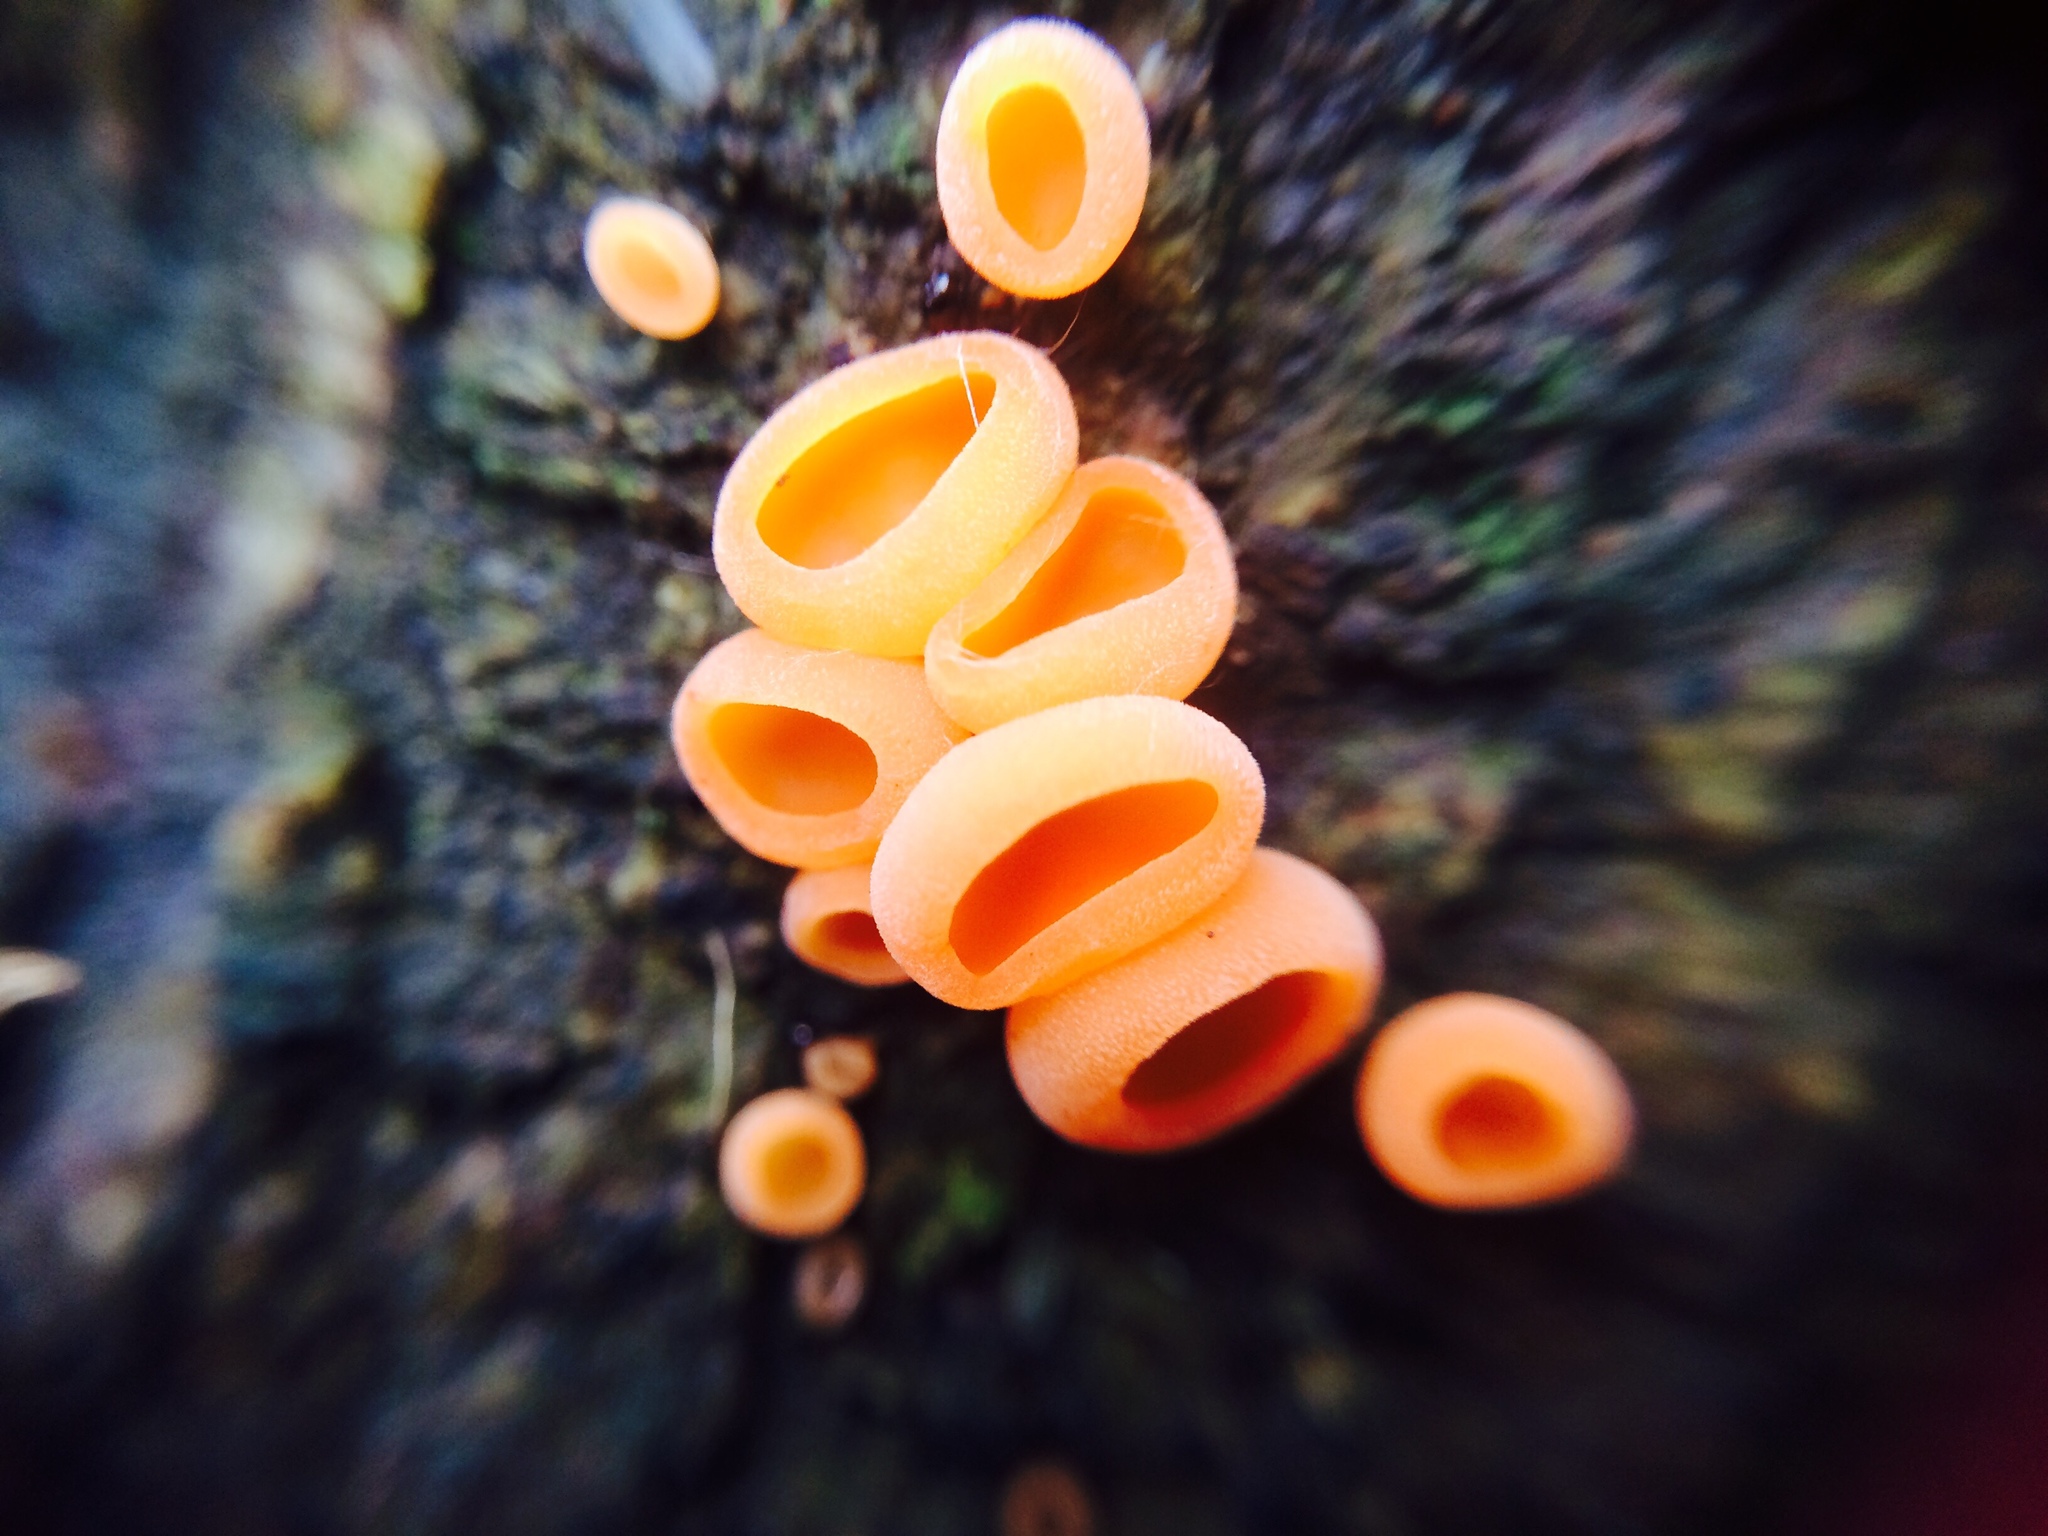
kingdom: Fungi
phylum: Ascomycota
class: Pezizomycetes
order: Pezizales
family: Sarcoscyphaceae
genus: Sarcoscypha
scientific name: Sarcoscypha coccinea
